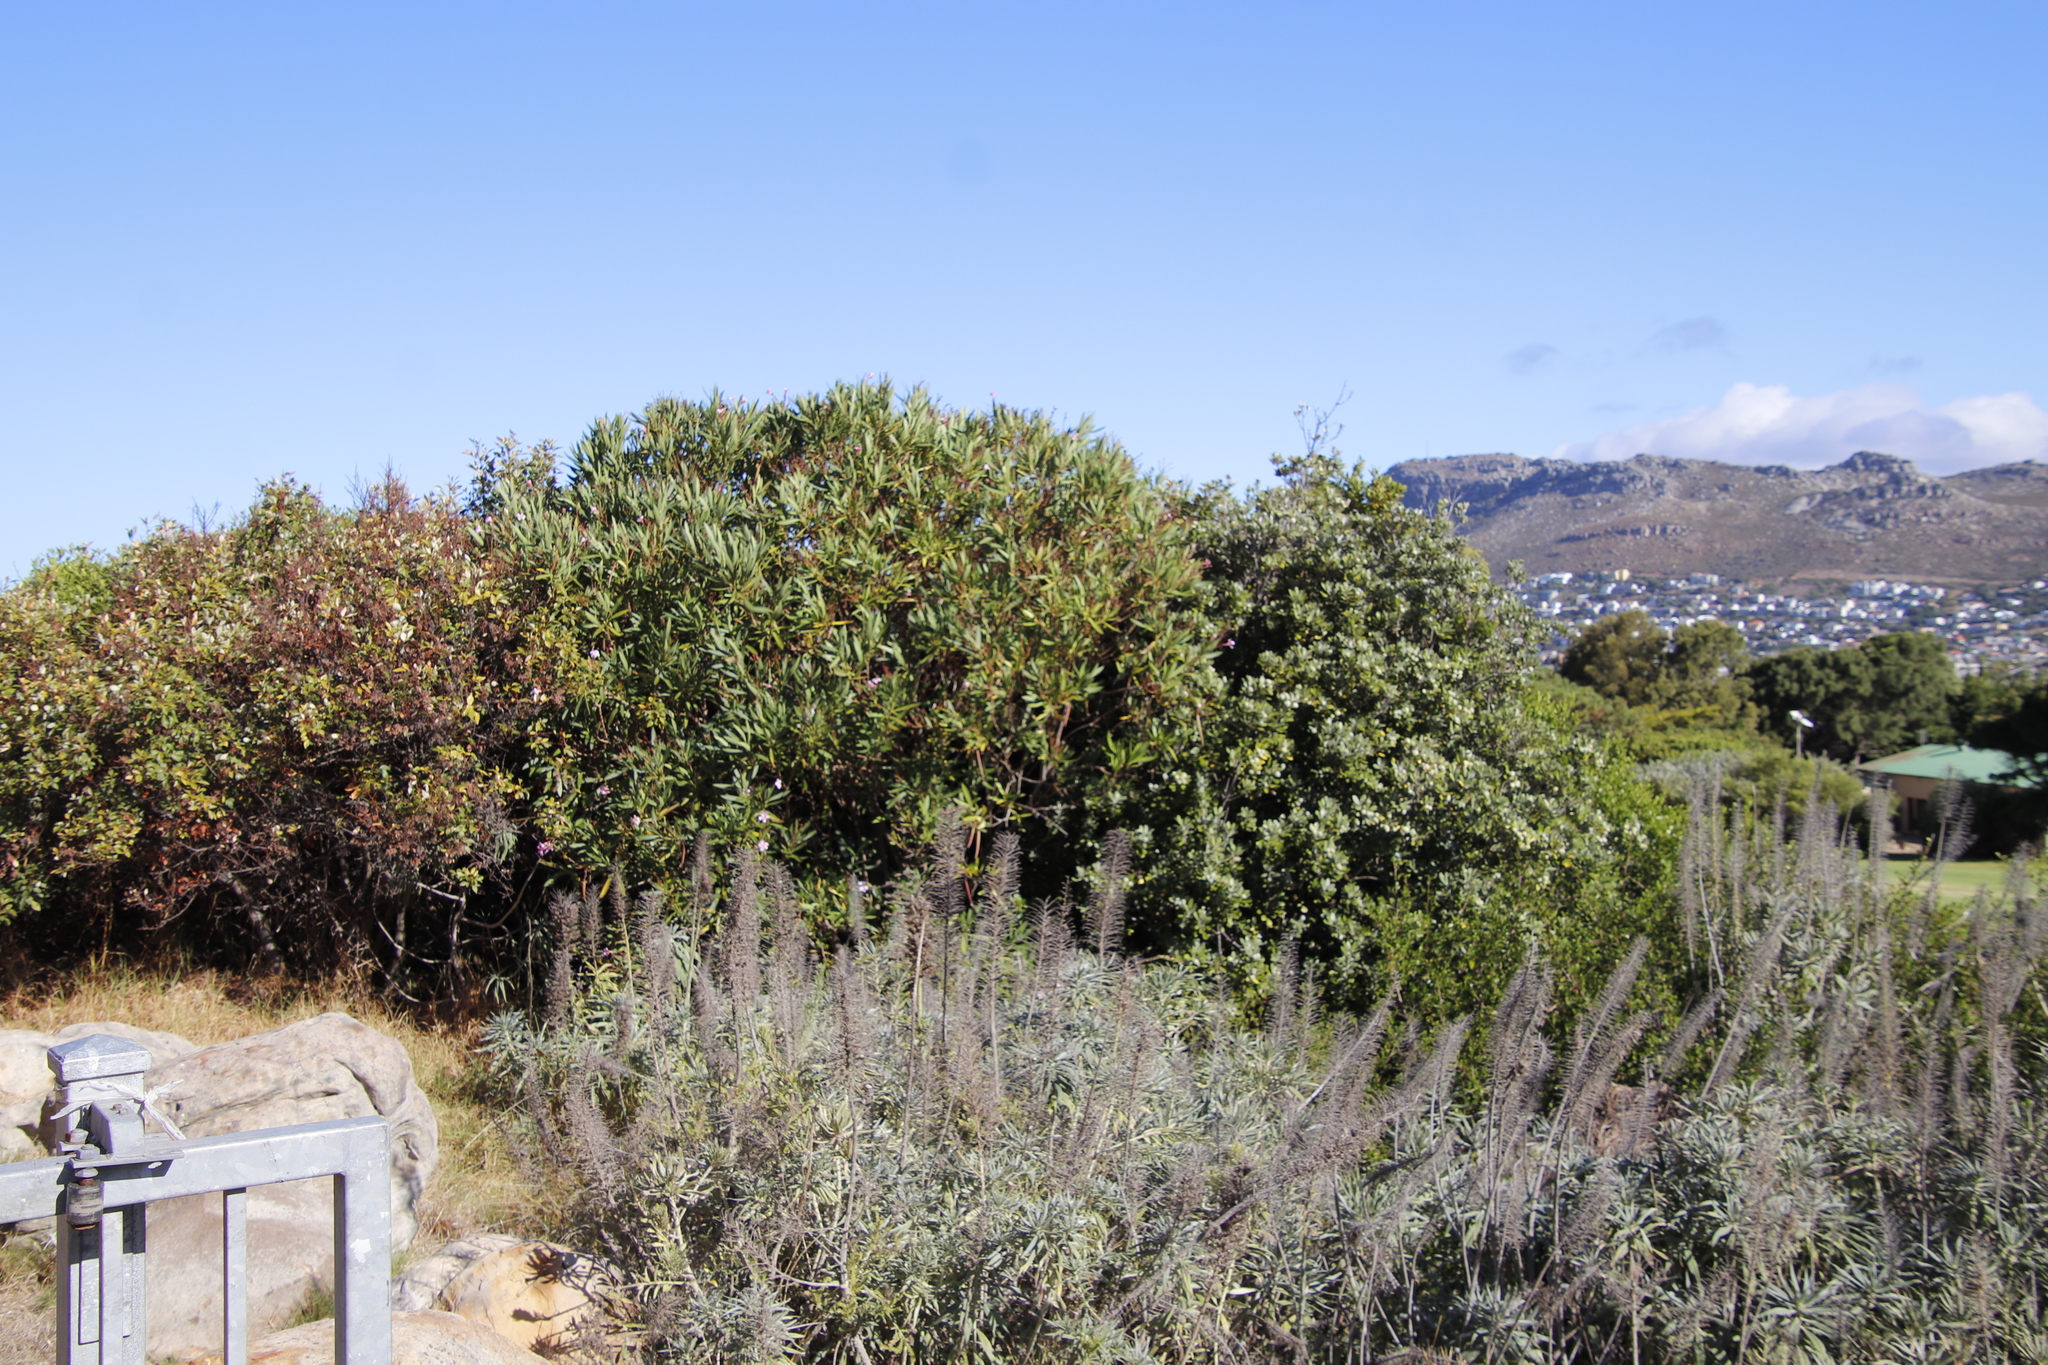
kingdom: Plantae
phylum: Tracheophyta
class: Magnoliopsida
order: Boraginales
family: Boraginaceae
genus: Echium
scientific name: Echium candicans
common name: Pride of madeira
